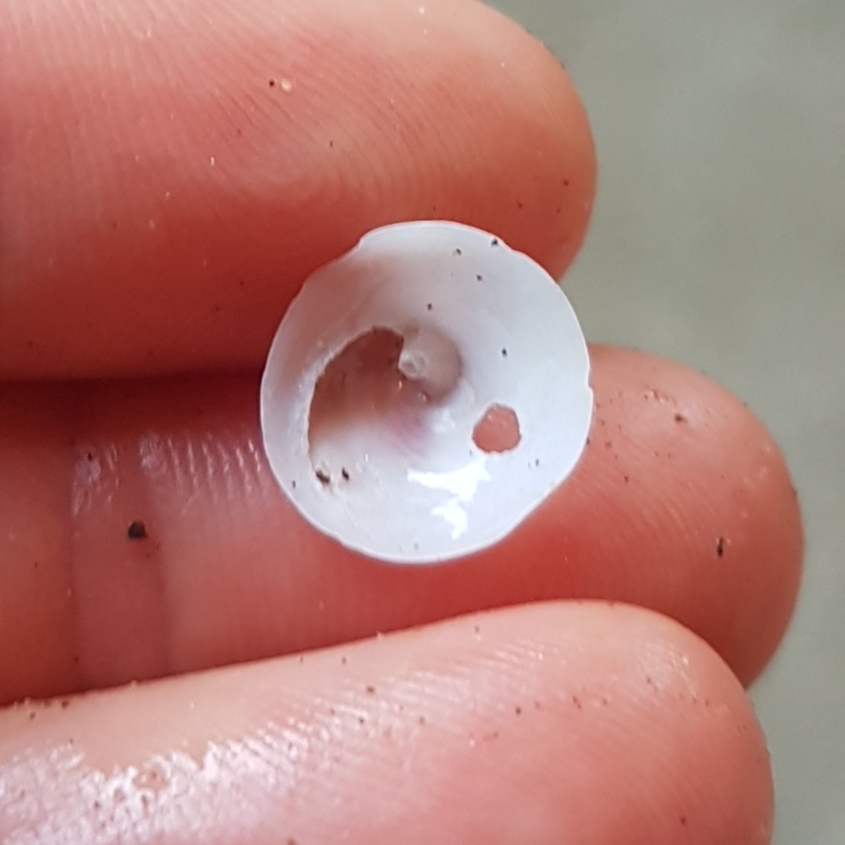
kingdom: Animalia
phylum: Mollusca
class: Gastropoda
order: Littorinimorpha
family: Calyptraeidae
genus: Calyptraea
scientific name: Calyptraea mamillaris
